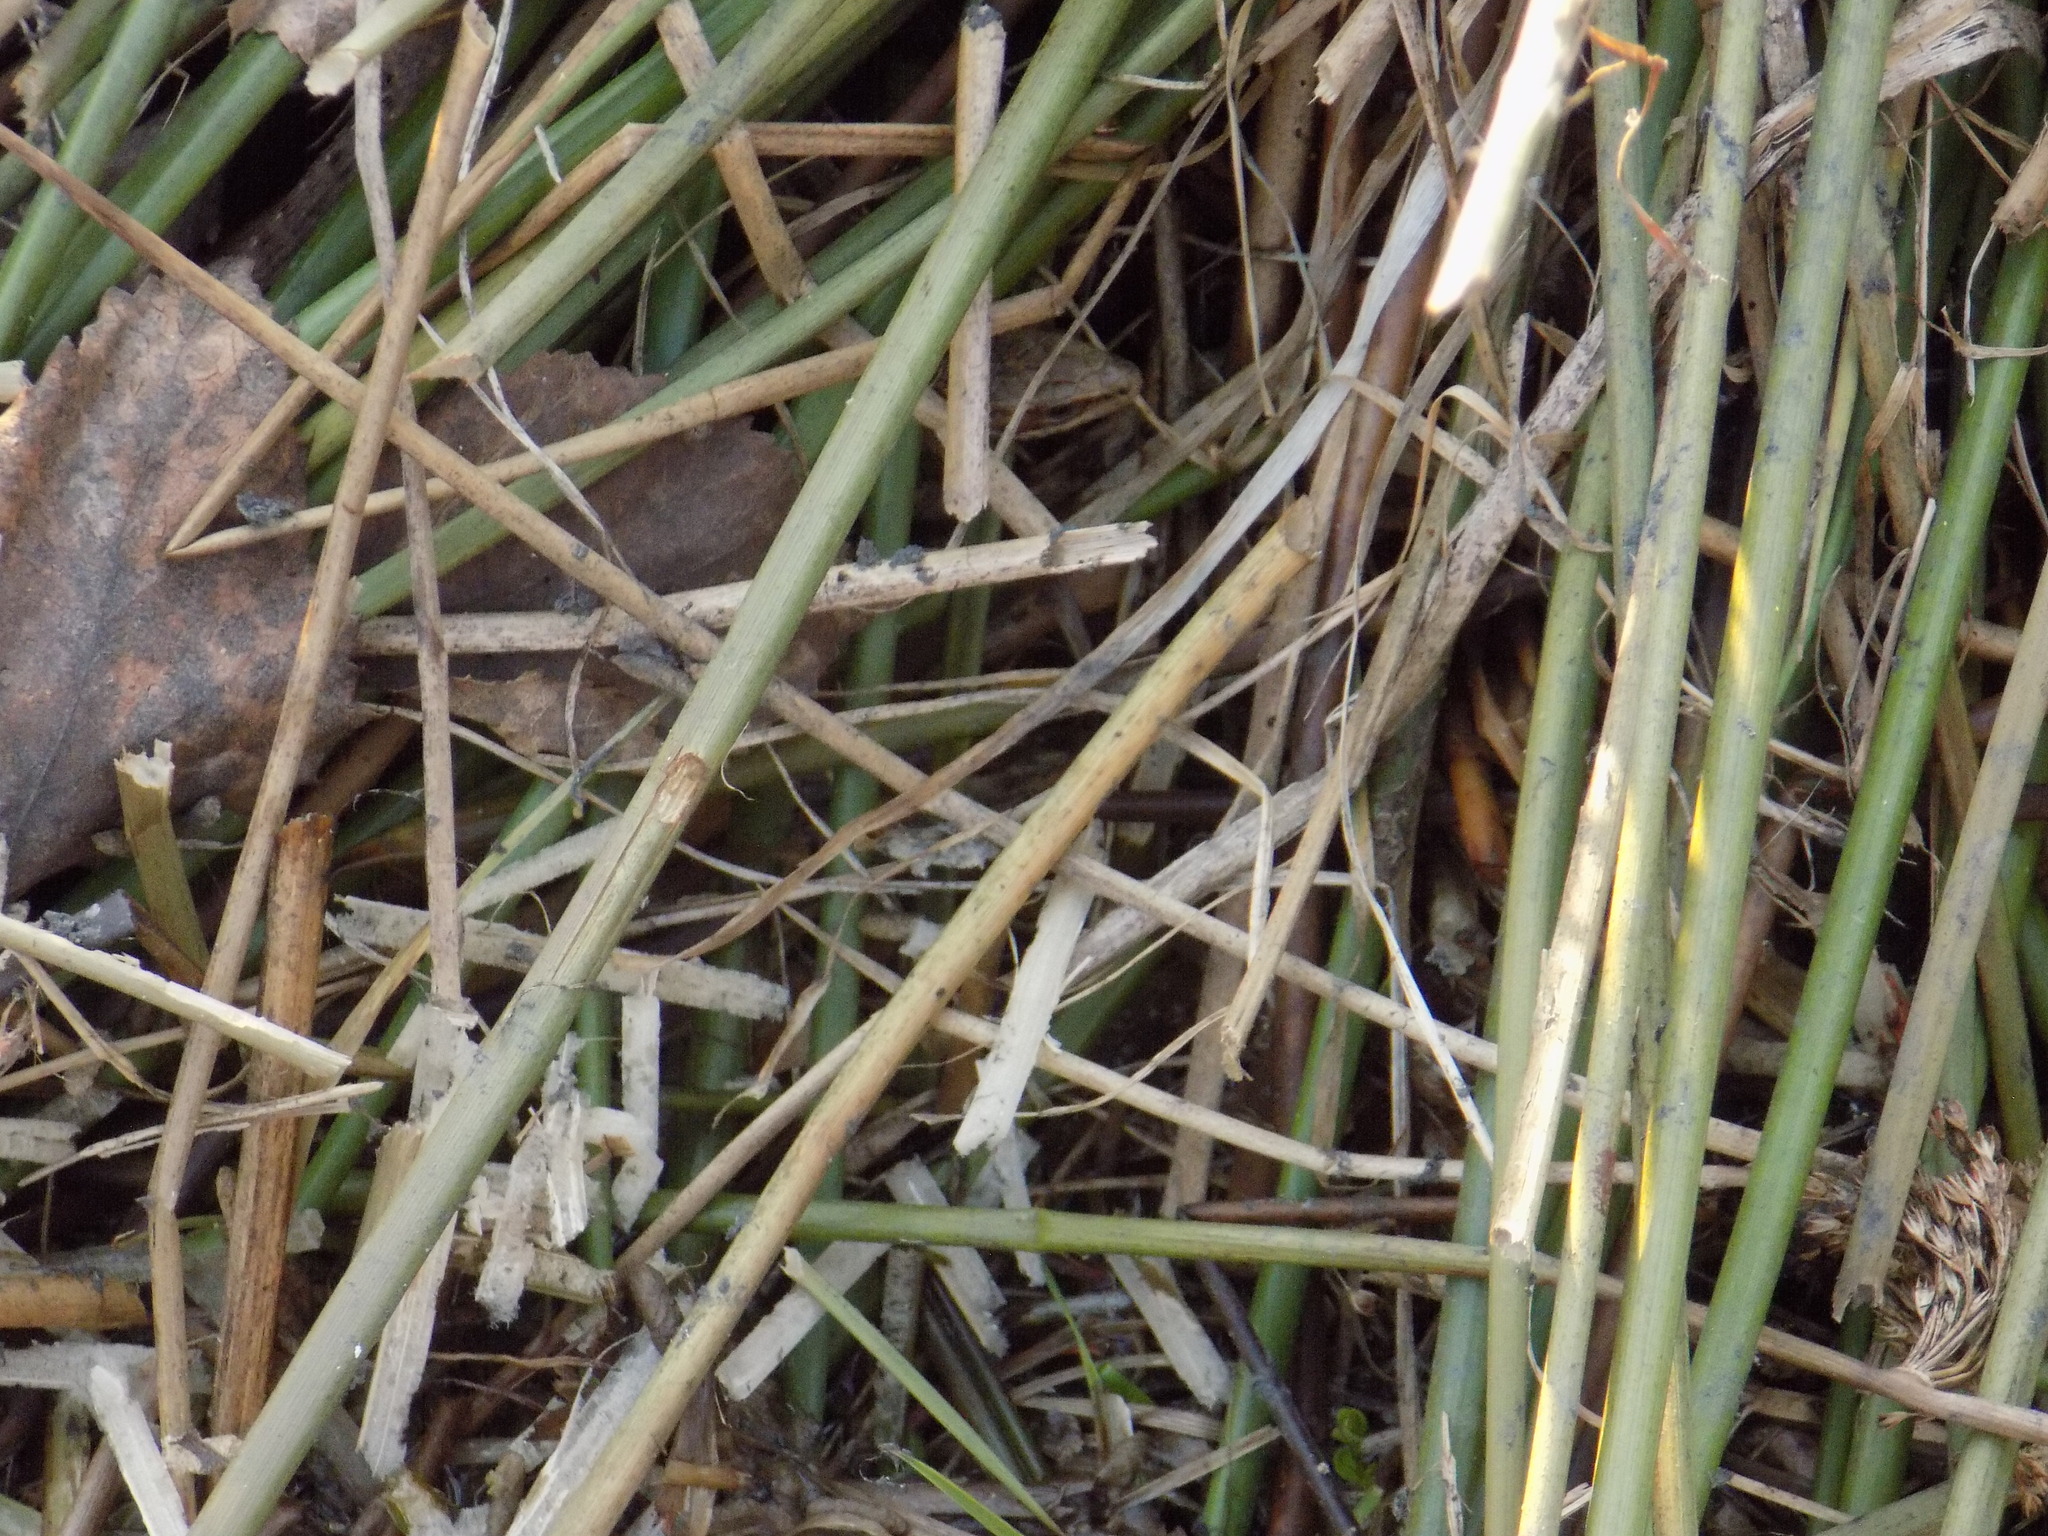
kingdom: Animalia
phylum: Chordata
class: Squamata
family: Lacertidae
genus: Zootoca
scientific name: Zootoca vivipara
